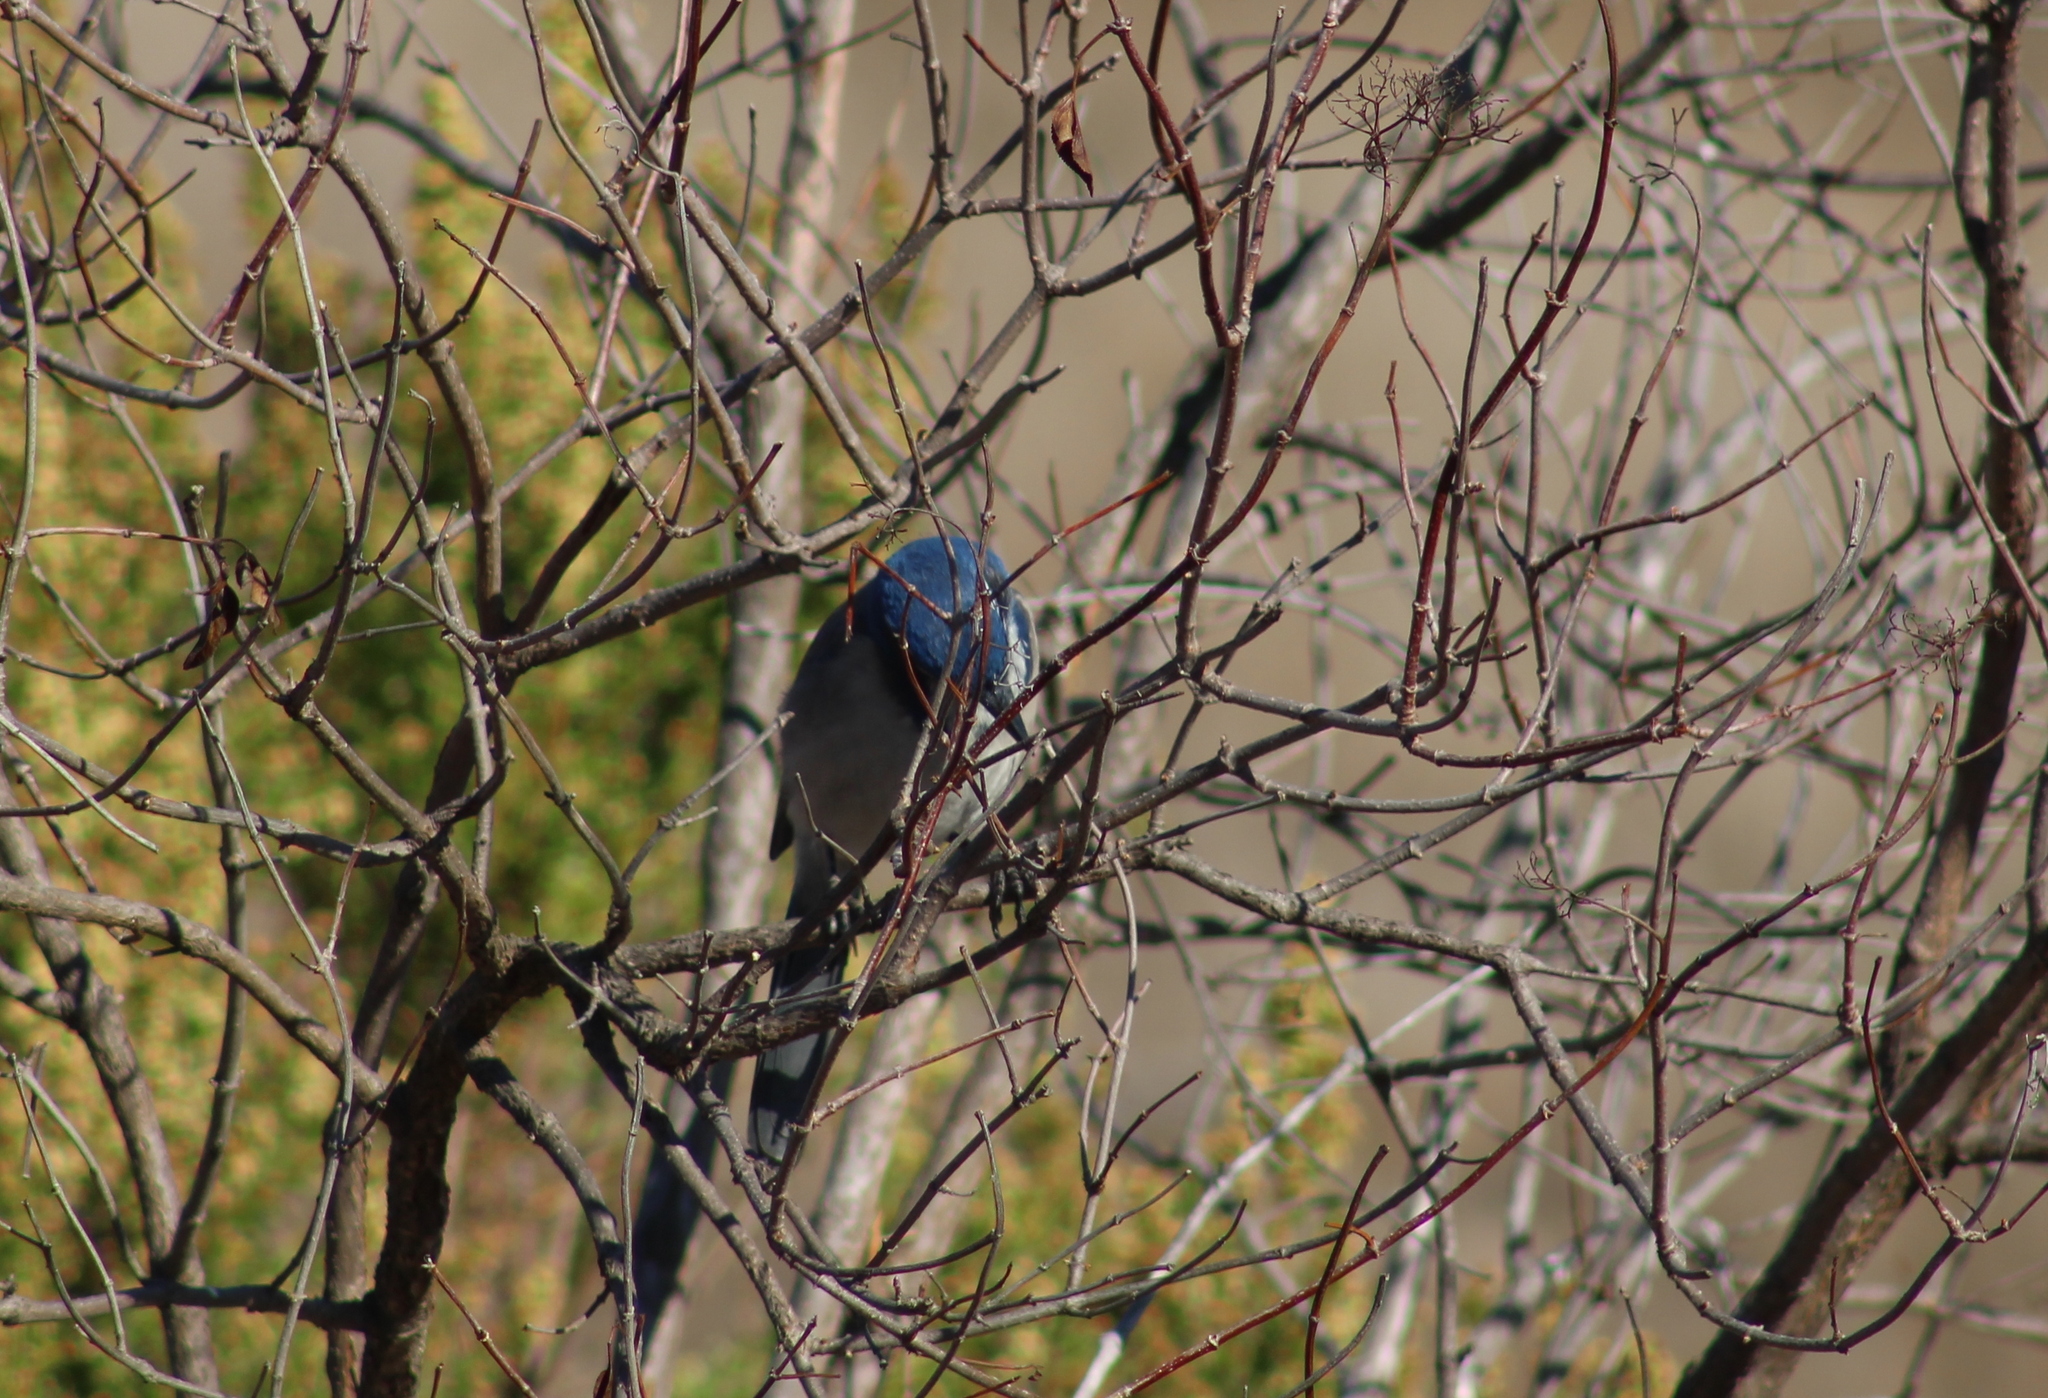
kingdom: Animalia
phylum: Chordata
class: Aves
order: Passeriformes
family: Corvidae
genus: Aphelocoma
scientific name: Aphelocoma californica
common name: California scrub-jay
